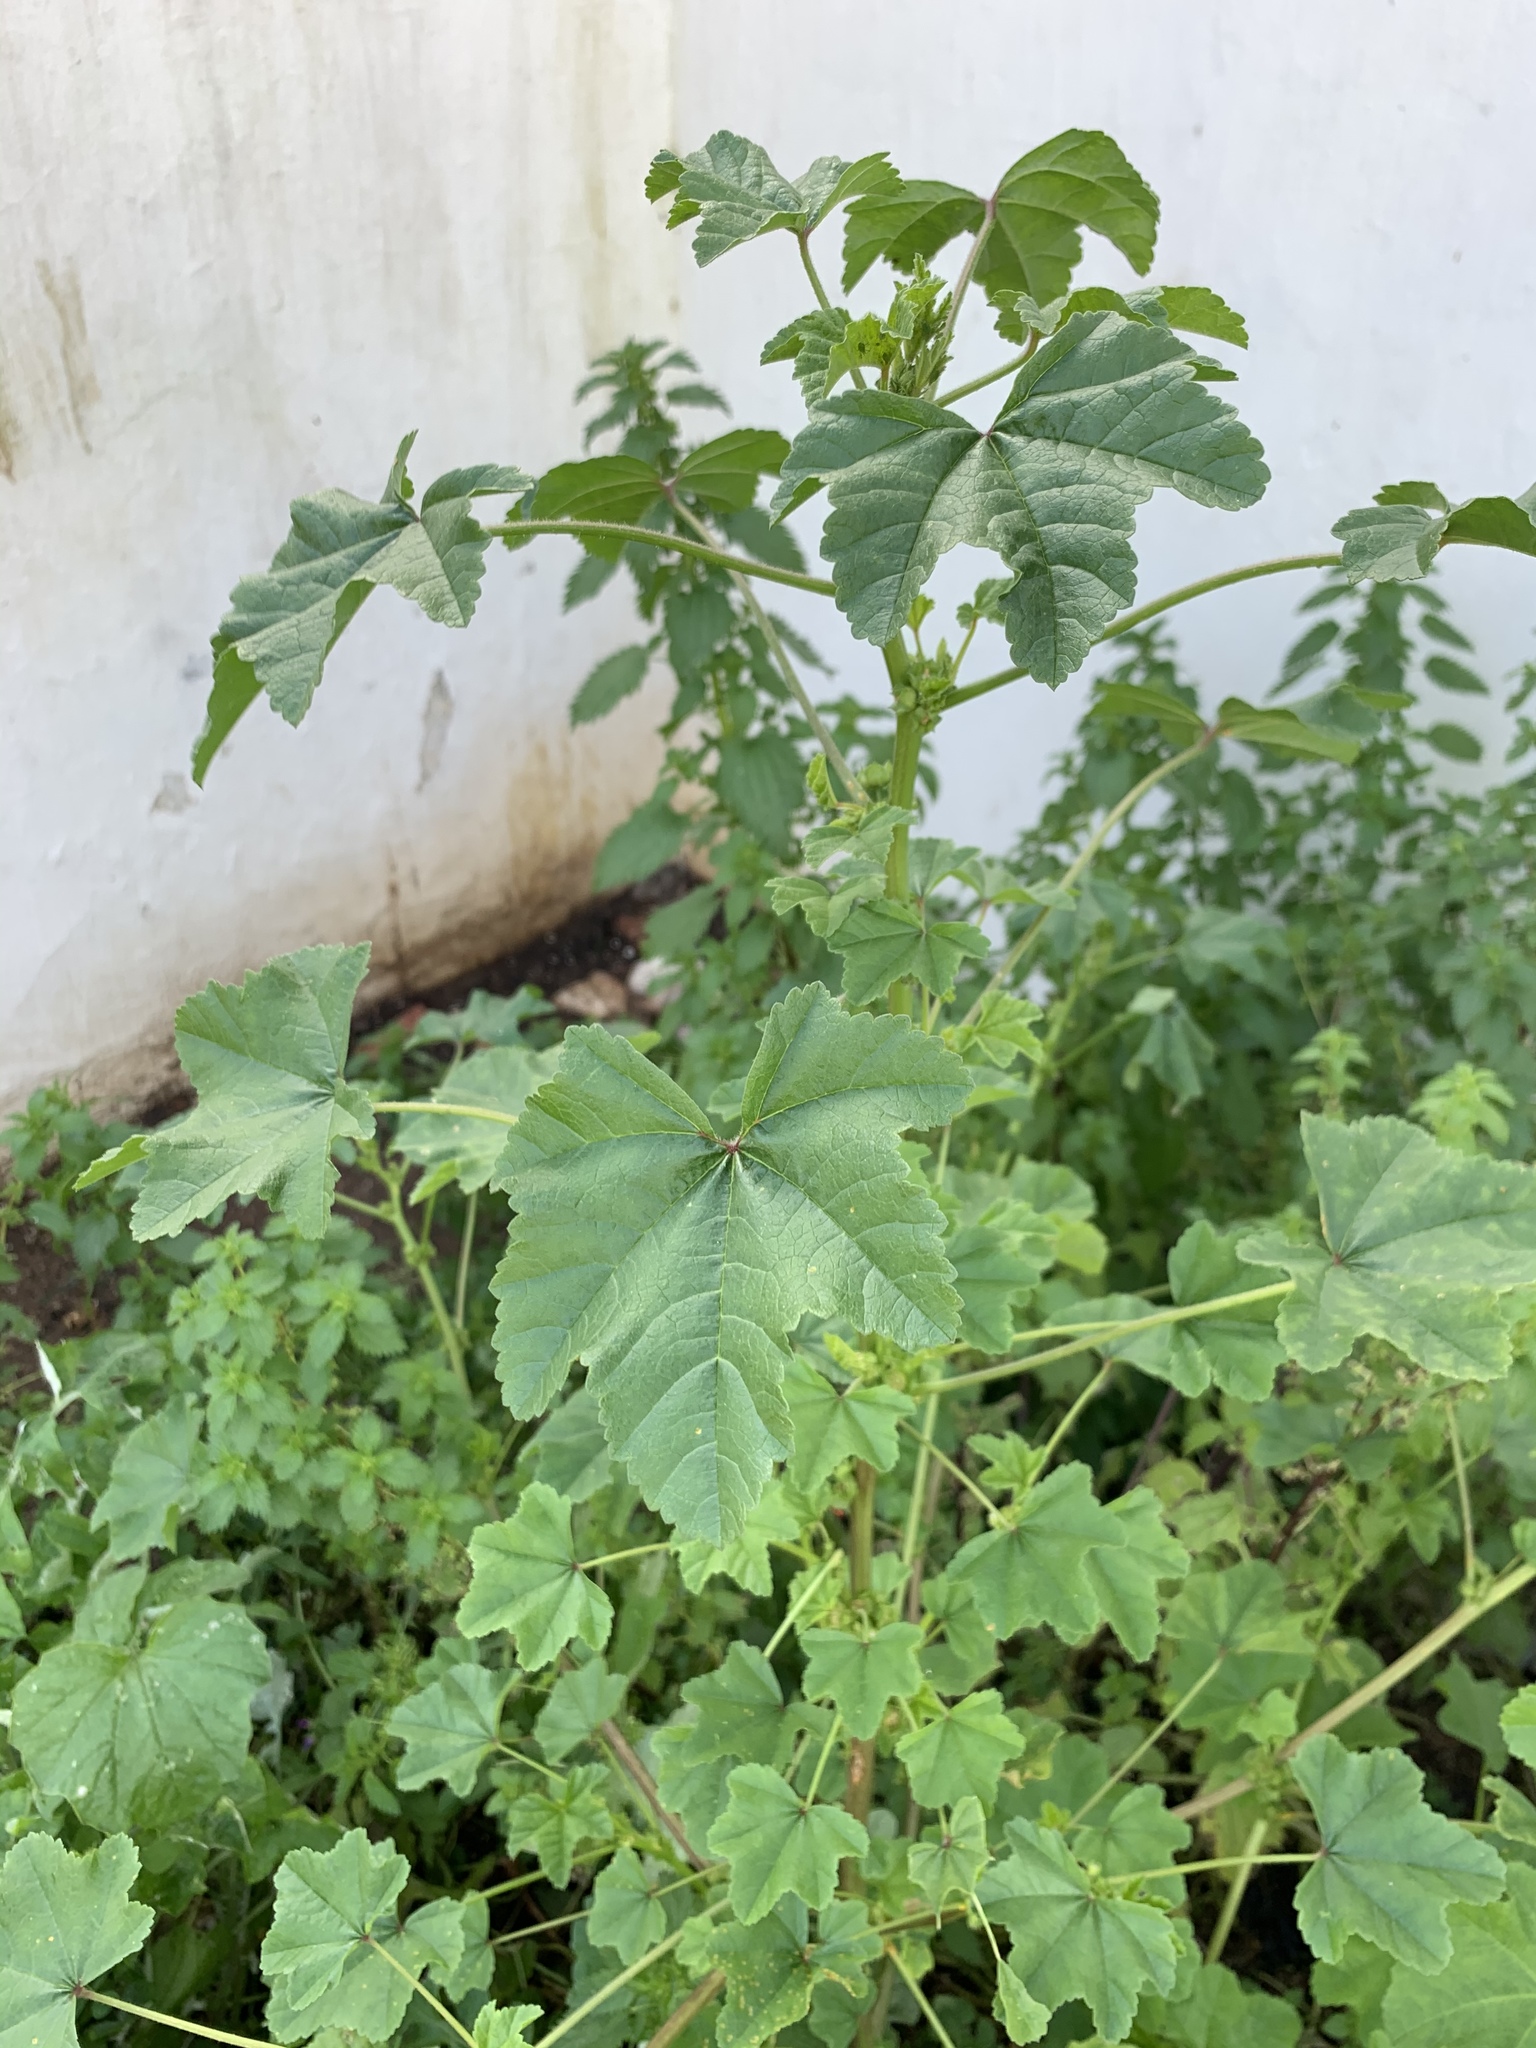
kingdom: Plantae
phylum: Tracheophyta
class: Magnoliopsida
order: Malvales
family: Malvaceae
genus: Malva
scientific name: Malva parviflora
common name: Least mallow
